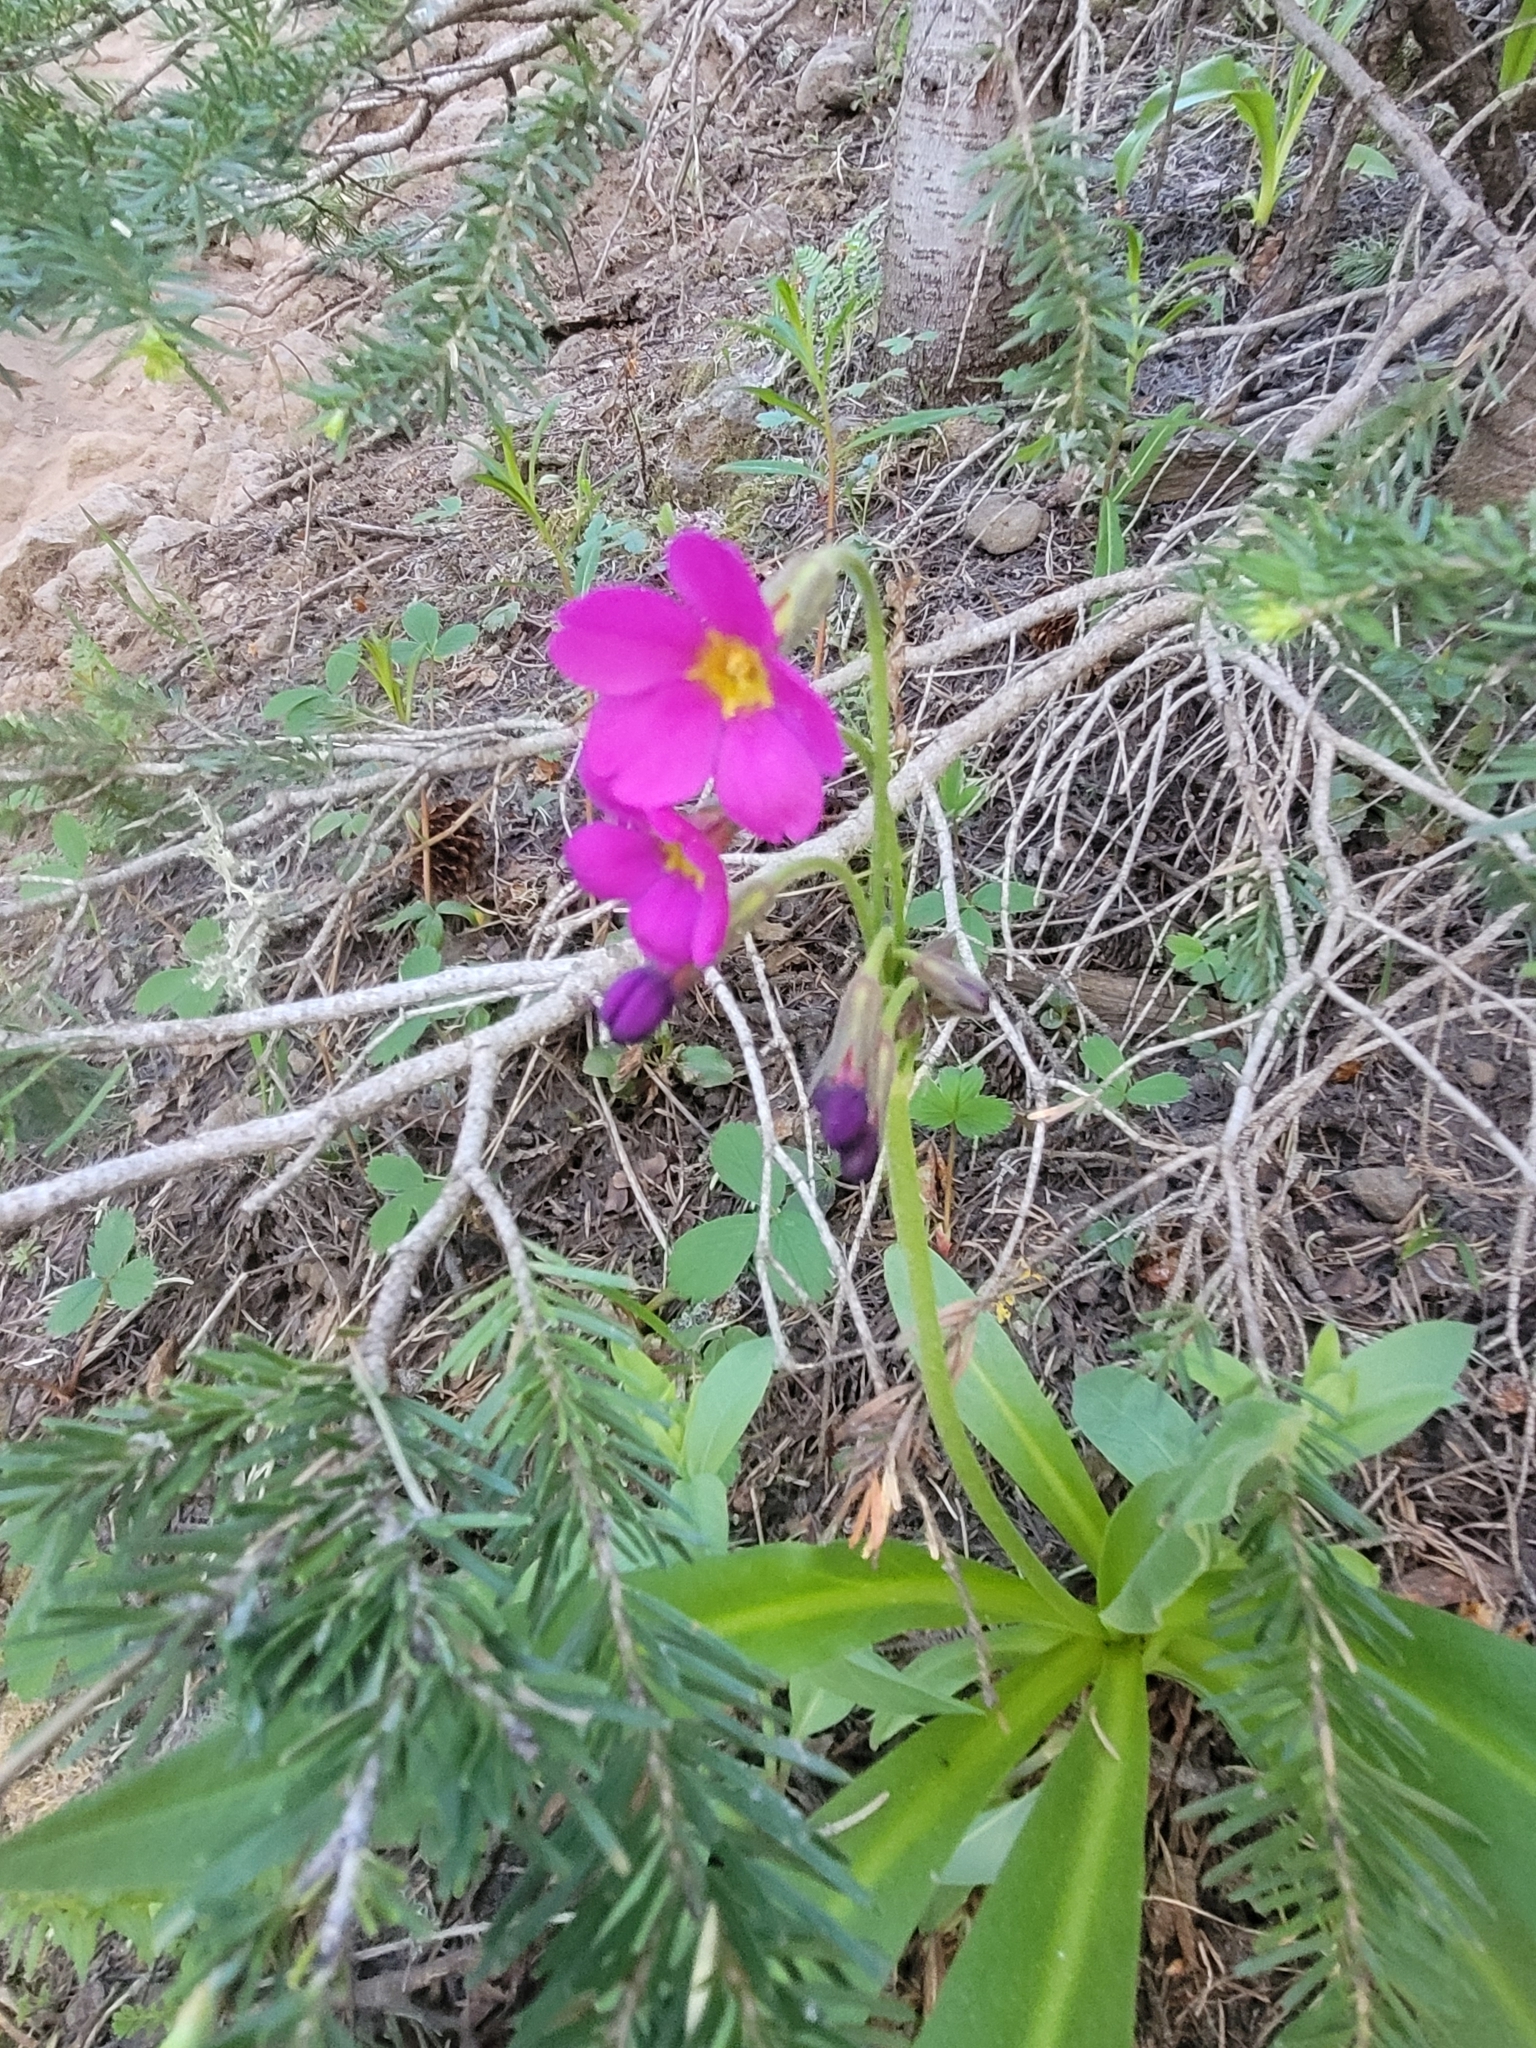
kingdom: Plantae
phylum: Tracheophyta
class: Magnoliopsida
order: Ericales
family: Primulaceae
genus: Primula
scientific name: Primula parryi
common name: Parry's primrose
